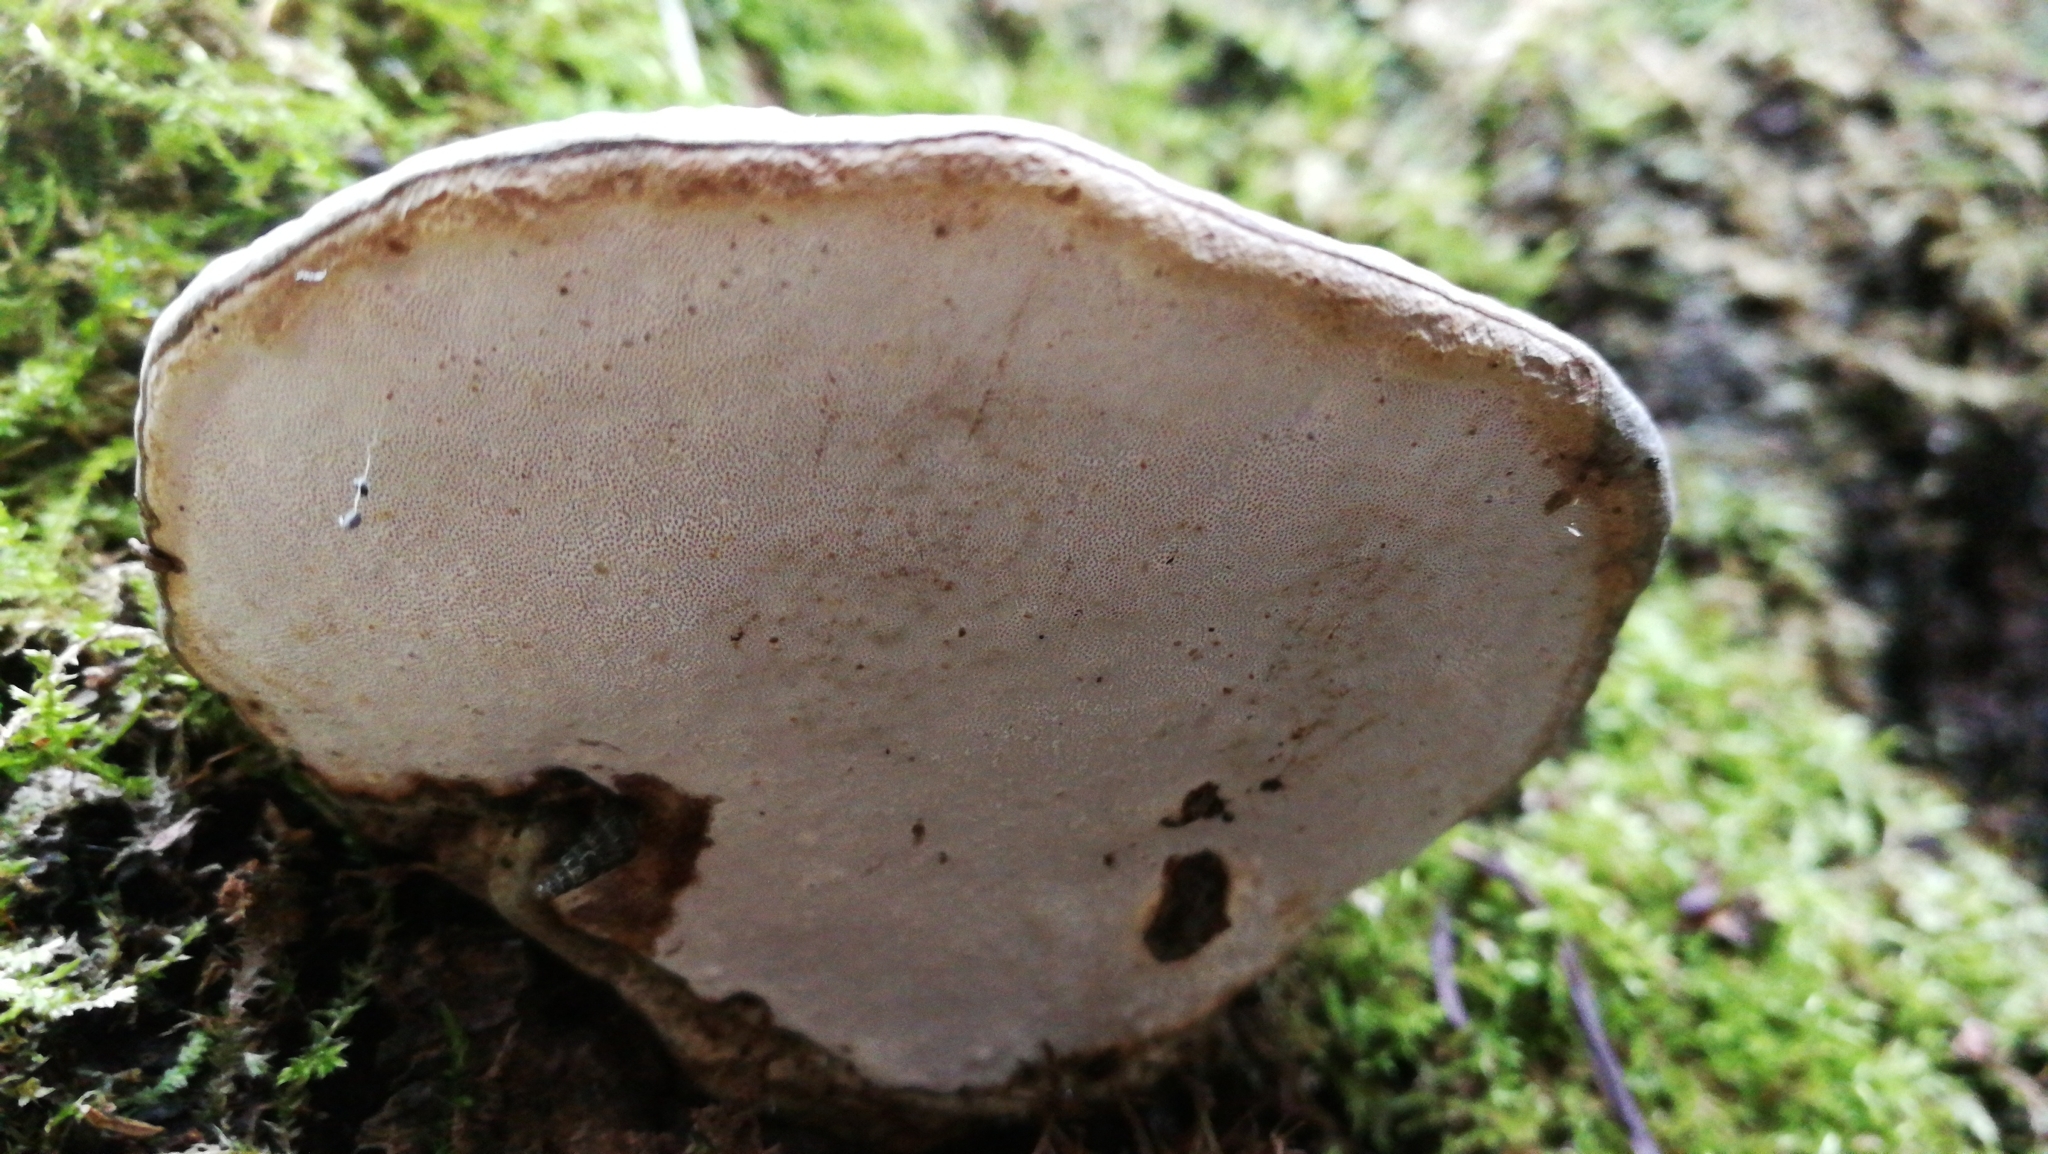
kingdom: Fungi
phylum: Basidiomycota
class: Agaricomycetes
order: Polyporales
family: Polyporaceae
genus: Ganoderma
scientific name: Ganoderma applanatum
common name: Artist's bracket
